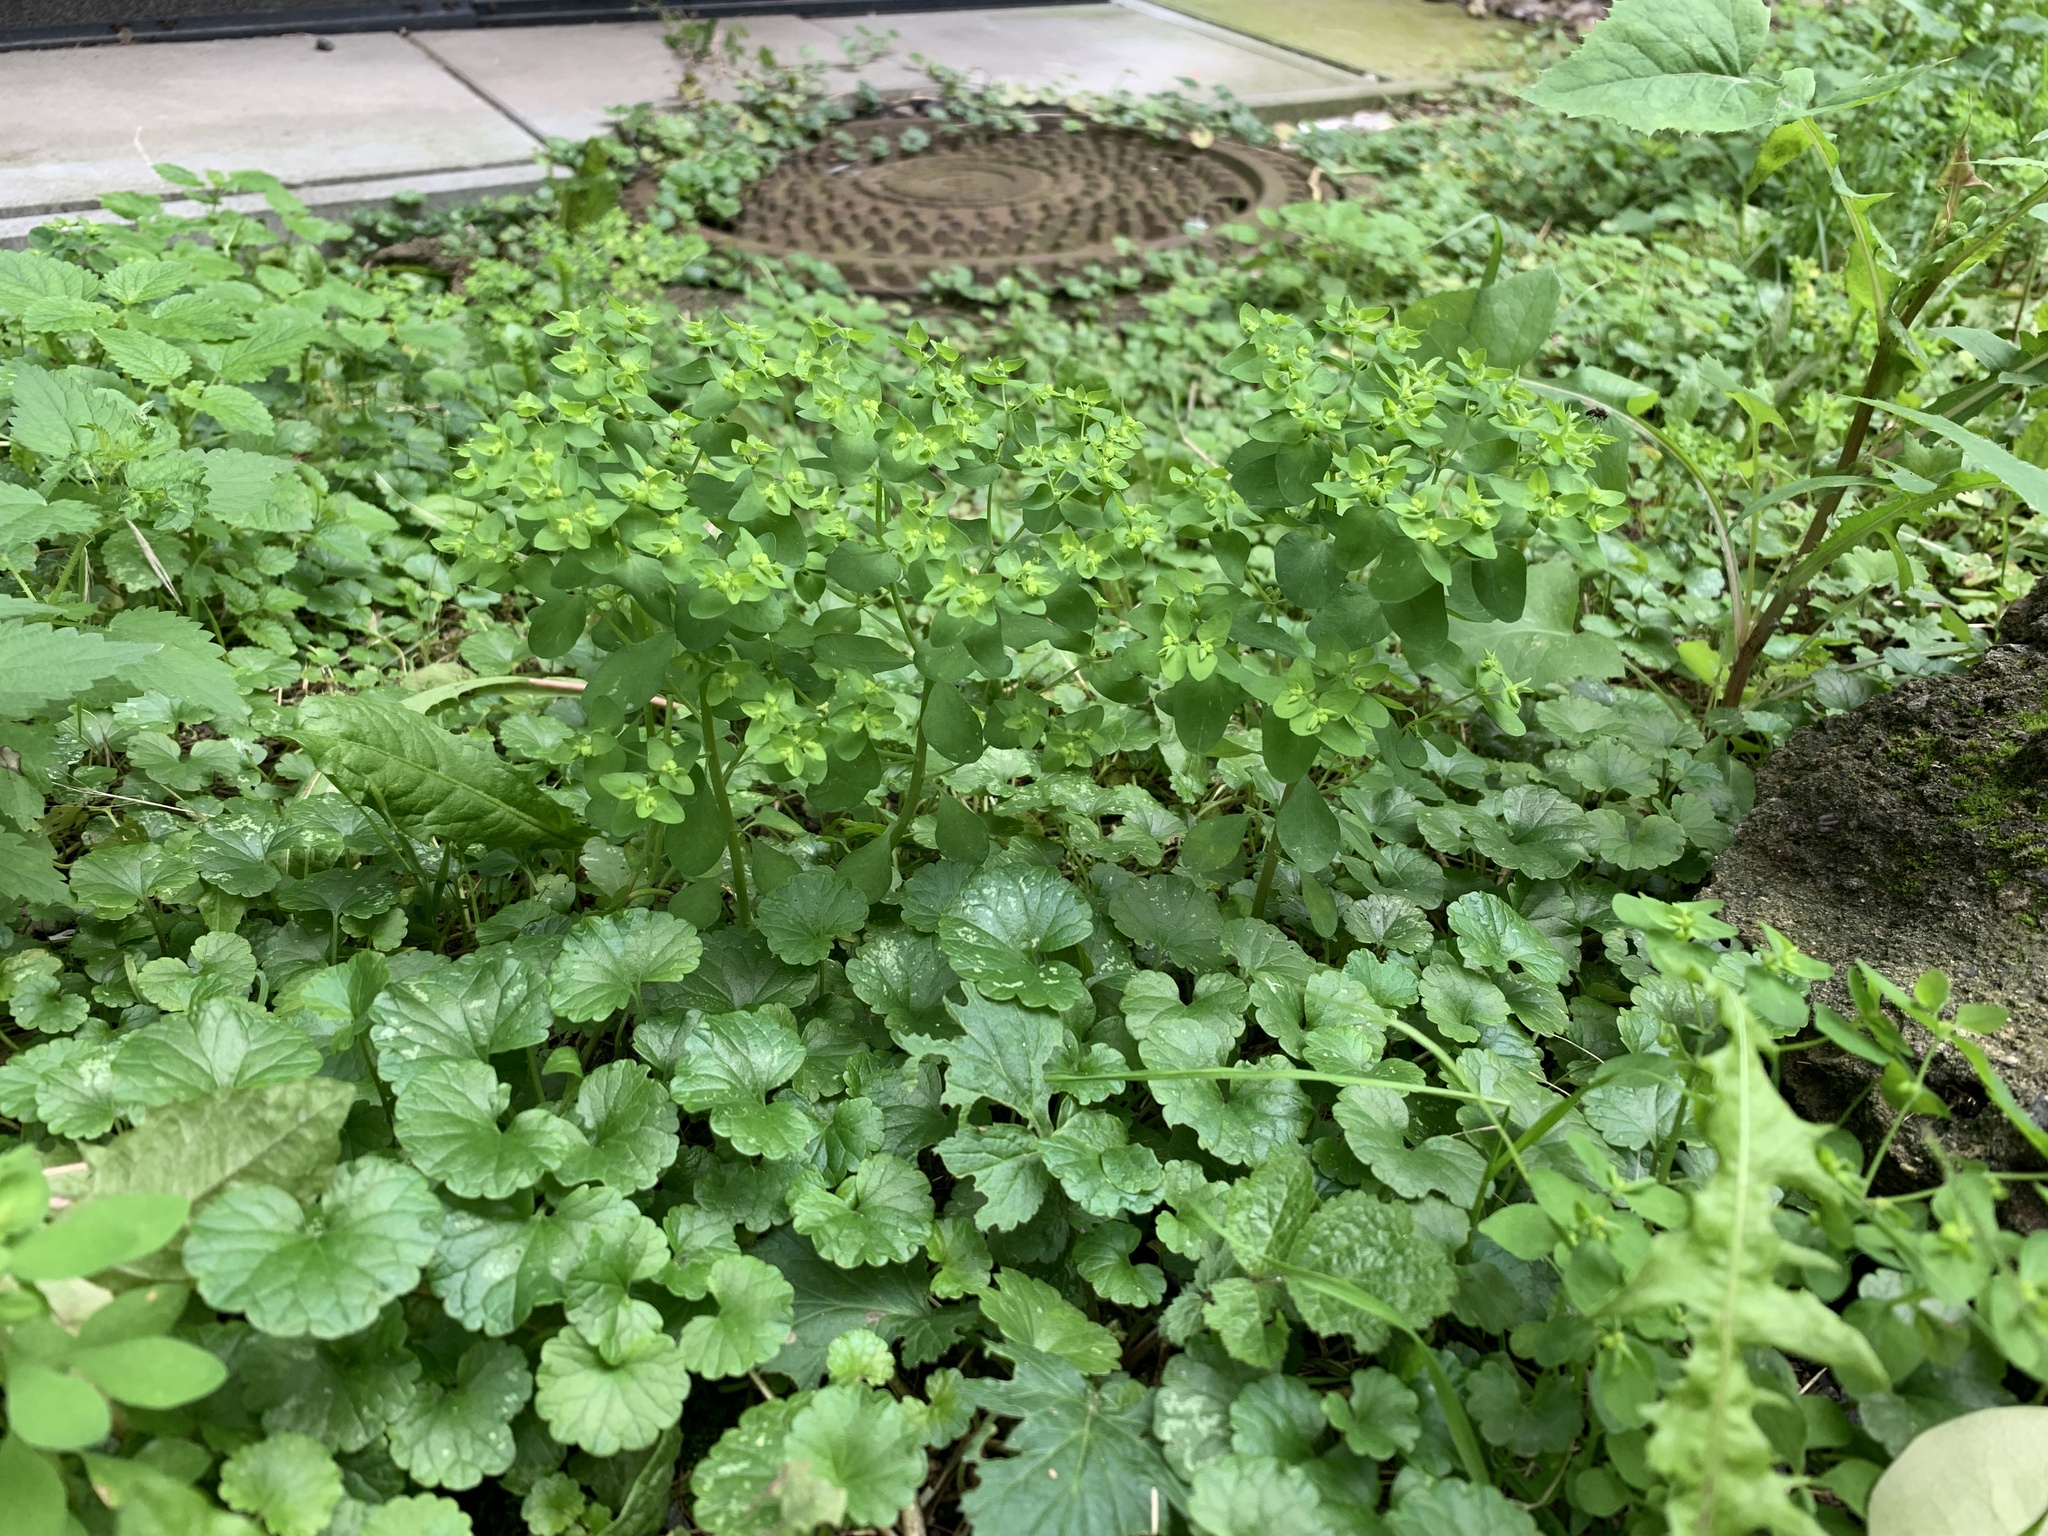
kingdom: Plantae
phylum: Tracheophyta
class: Magnoliopsida
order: Malpighiales
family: Euphorbiaceae
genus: Euphorbia
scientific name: Euphorbia peplus
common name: Petty spurge
